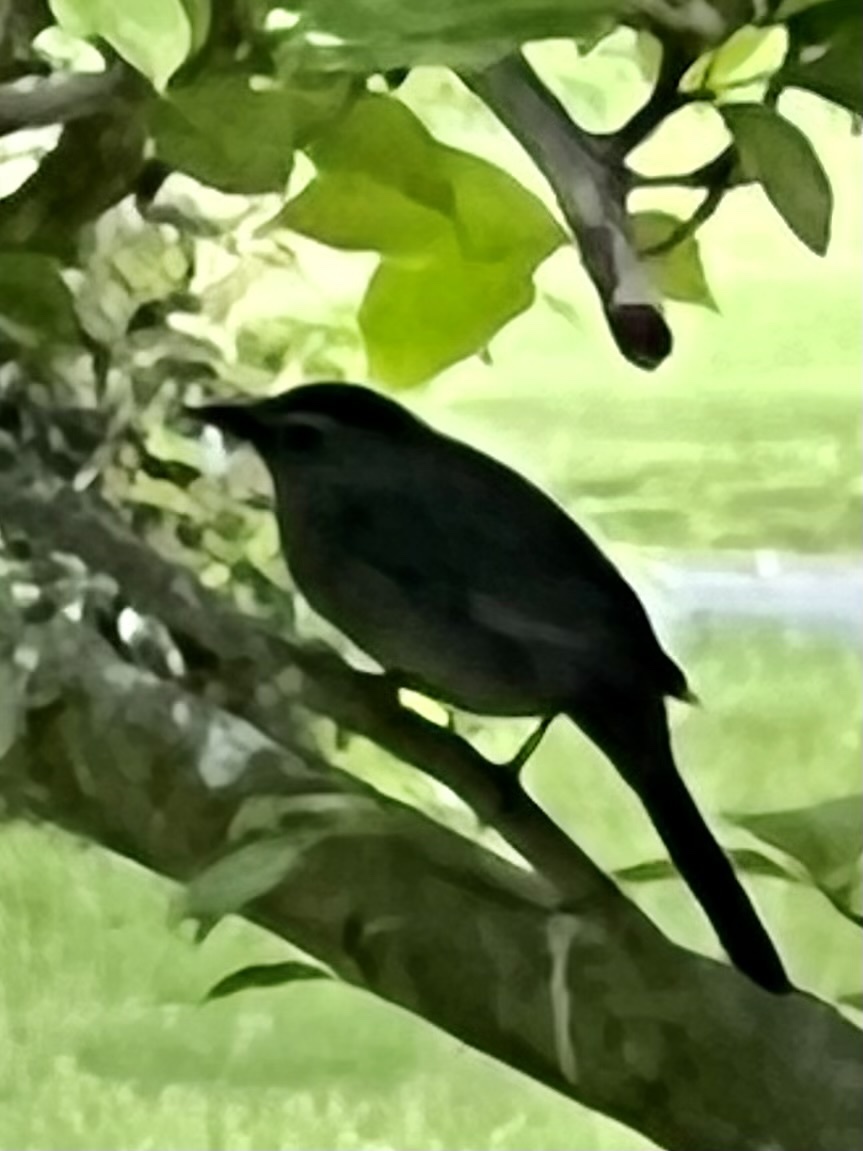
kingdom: Animalia
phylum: Chordata
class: Aves
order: Passeriformes
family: Mimidae
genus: Dumetella
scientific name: Dumetella carolinensis
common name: Gray catbird
